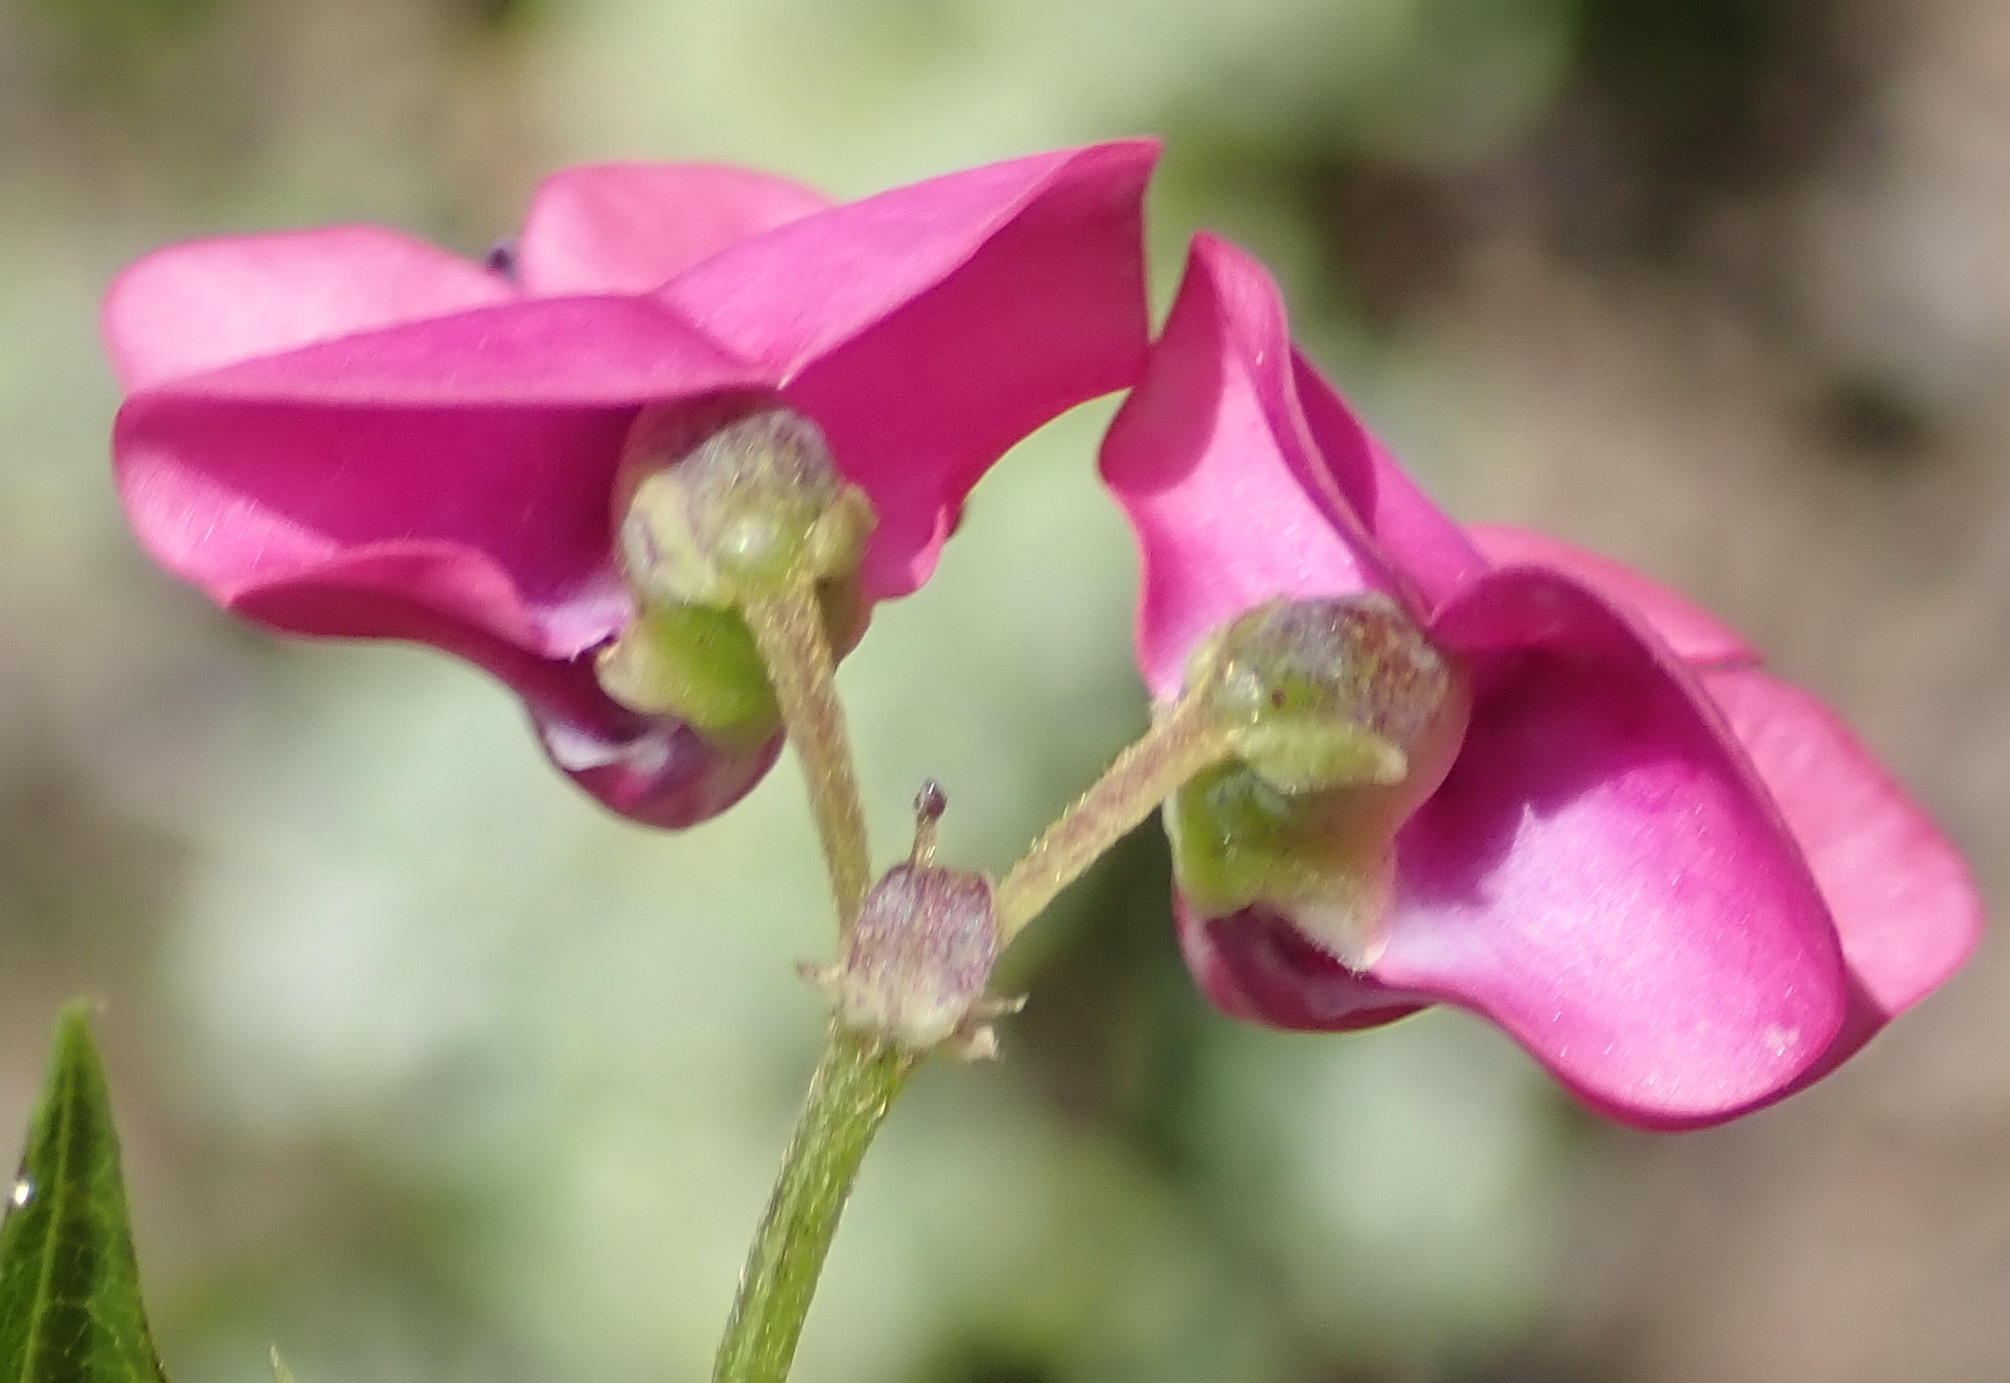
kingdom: Plantae
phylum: Tracheophyta
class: Magnoliopsida
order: Fabales
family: Fabaceae
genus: Dipogon
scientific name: Dipogon lignosus
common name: Okie bean
